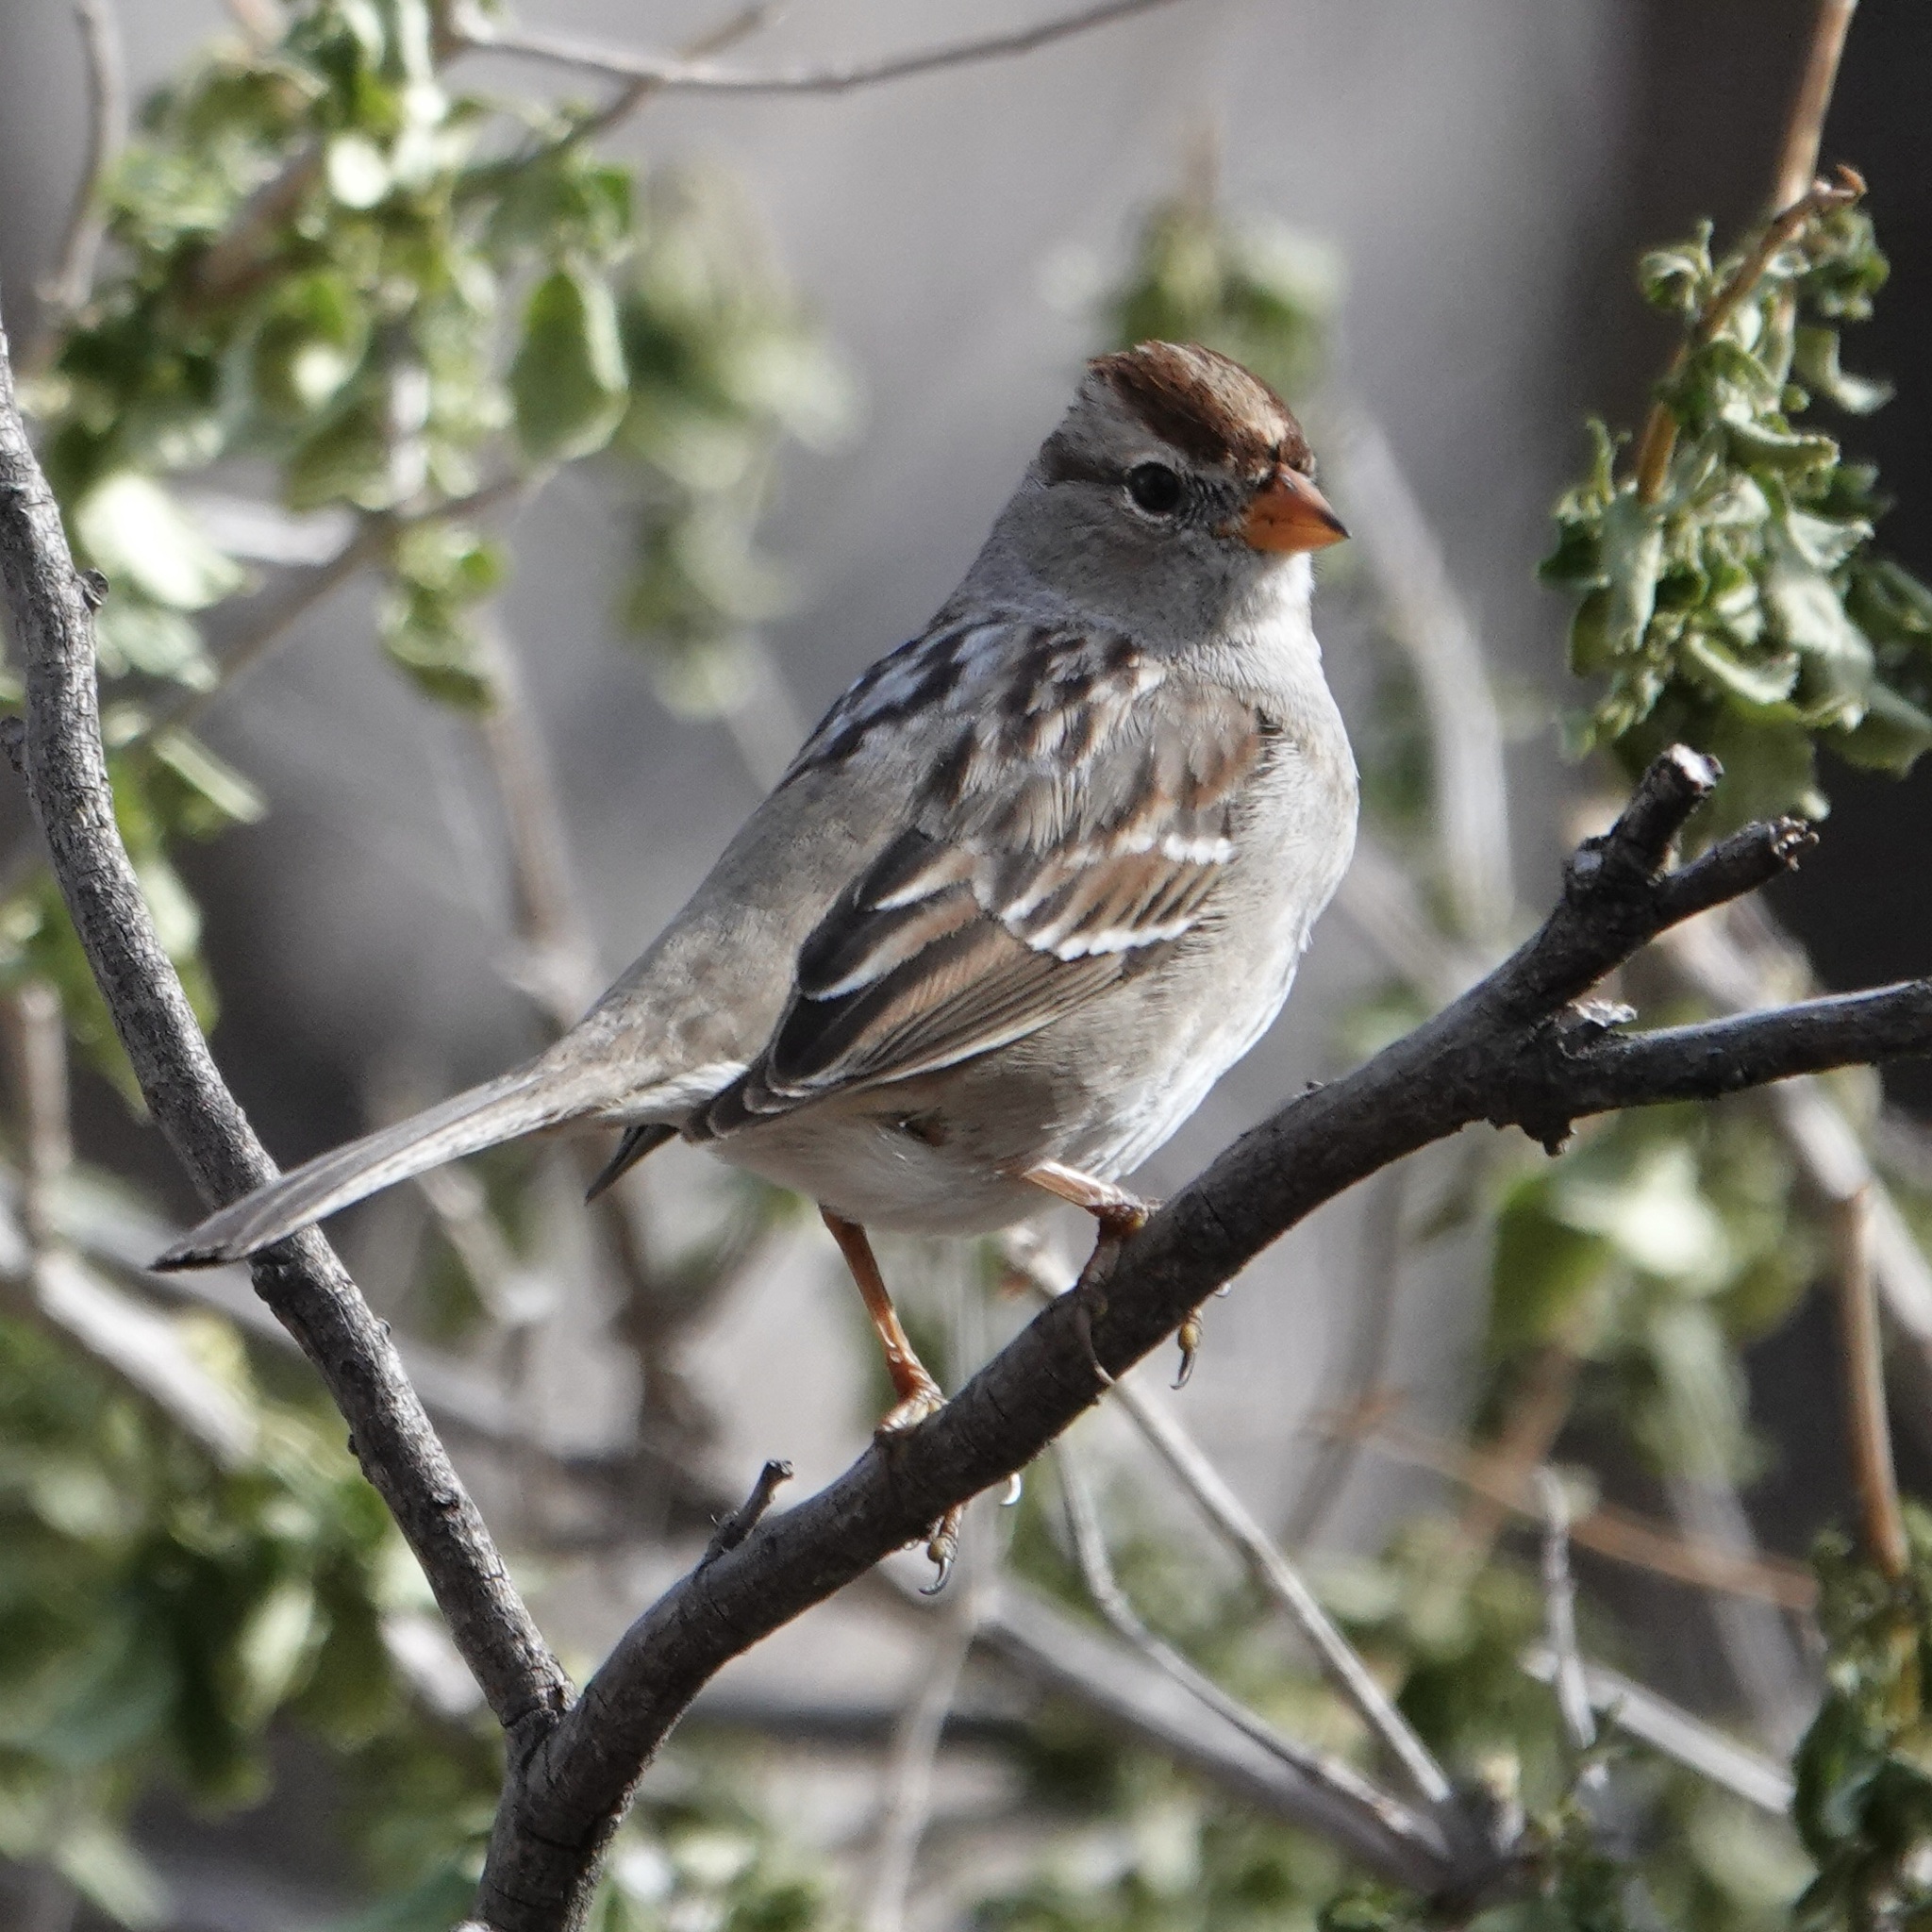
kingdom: Animalia
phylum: Chordata
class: Aves
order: Passeriformes
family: Passerellidae
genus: Zonotrichia
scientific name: Zonotrichia leucophrys
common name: White-crowned sparrow
